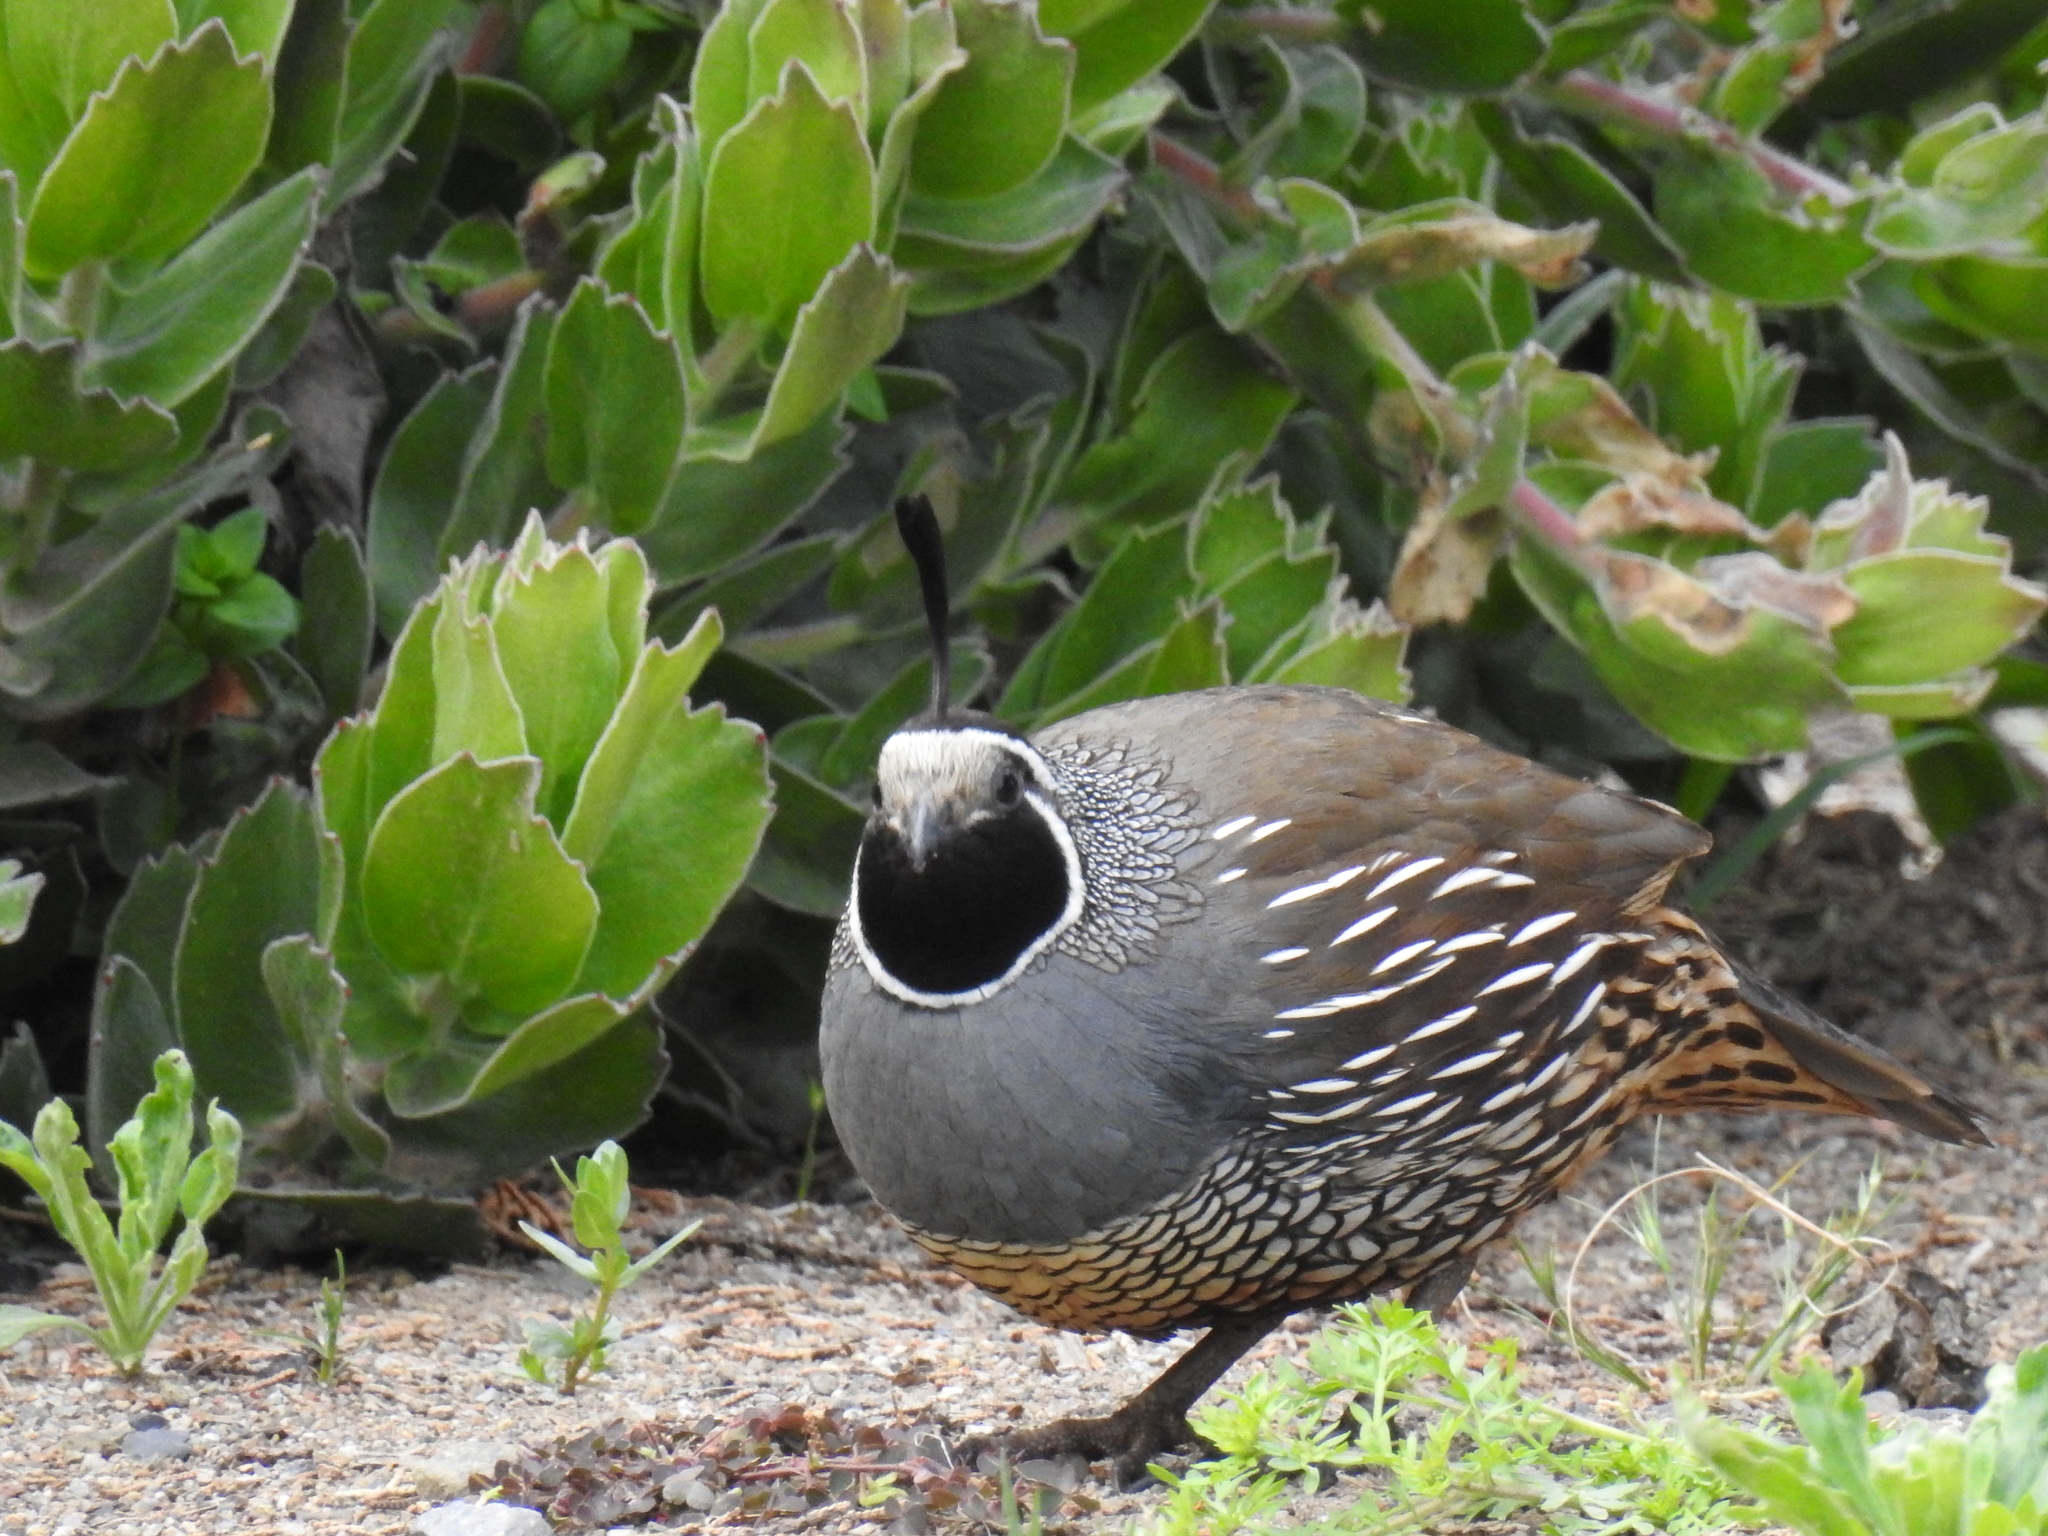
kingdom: Animalia
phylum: Chordata
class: Aves
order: Galliformes
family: Odontophoridae
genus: Callipepla
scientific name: Callipepla californica
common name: California quail
